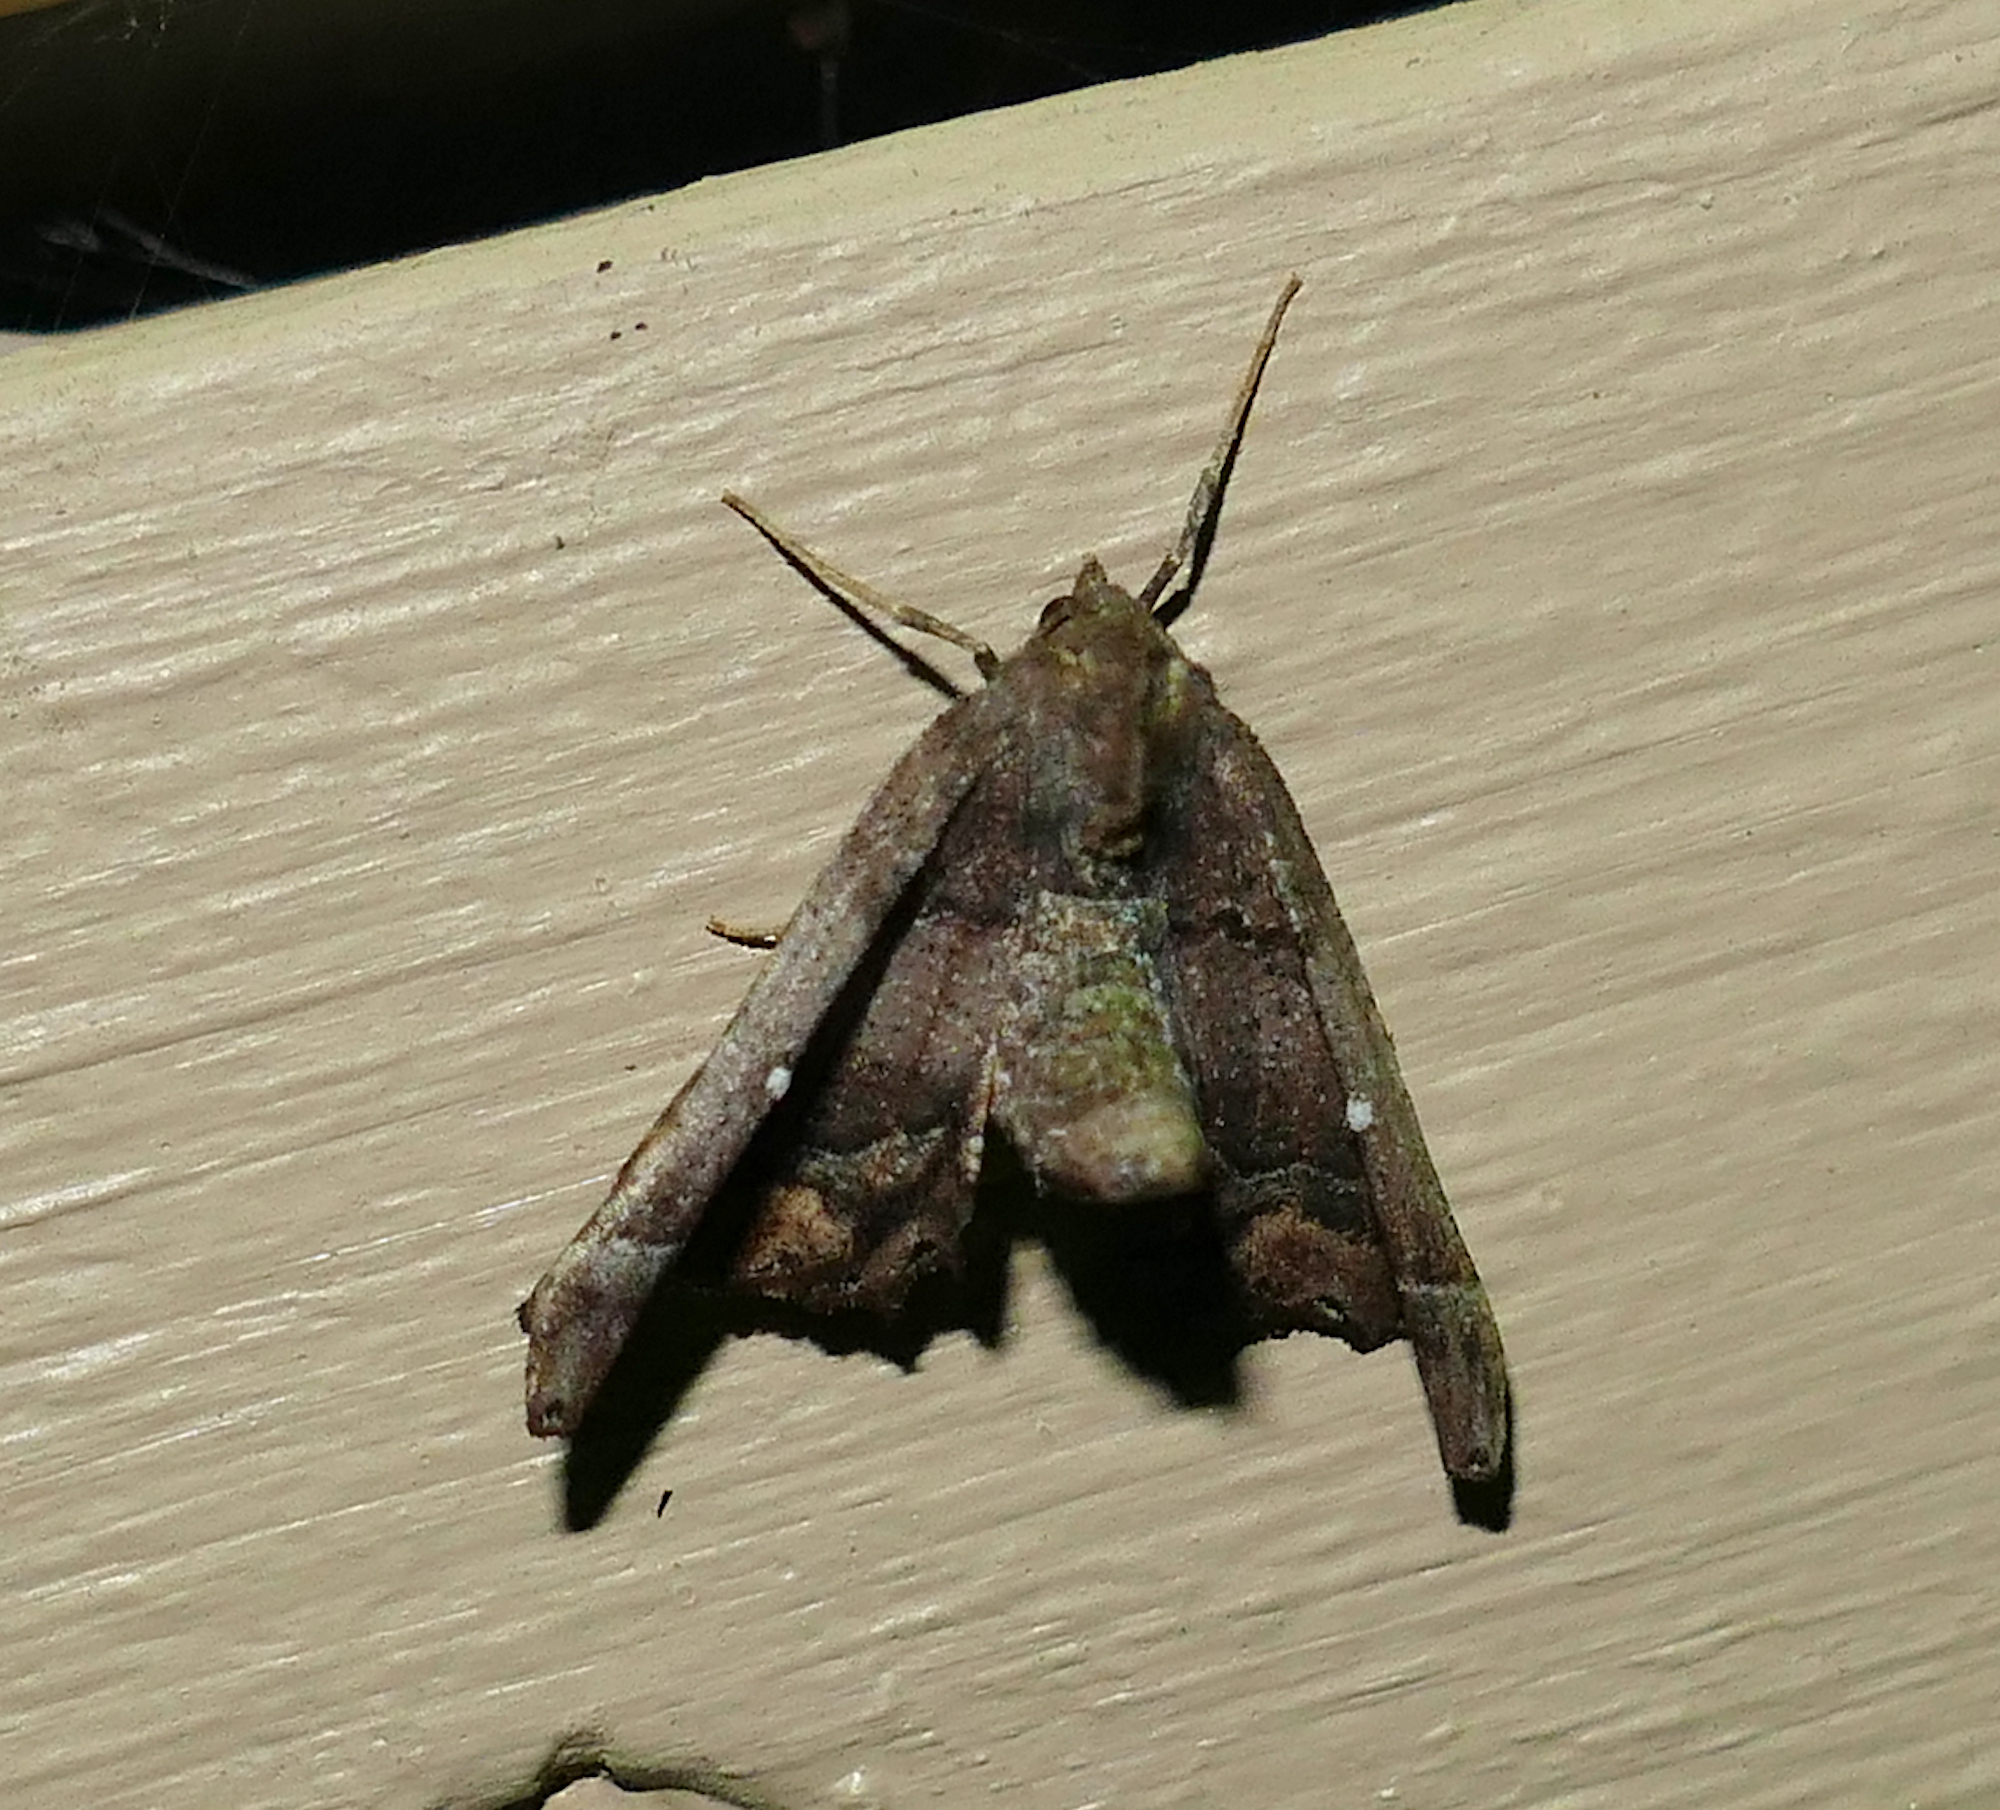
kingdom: Animalia
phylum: Arthropoda
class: Insecta
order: Lepidoptera
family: Geometridae
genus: Pero
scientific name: Pero meskaria
